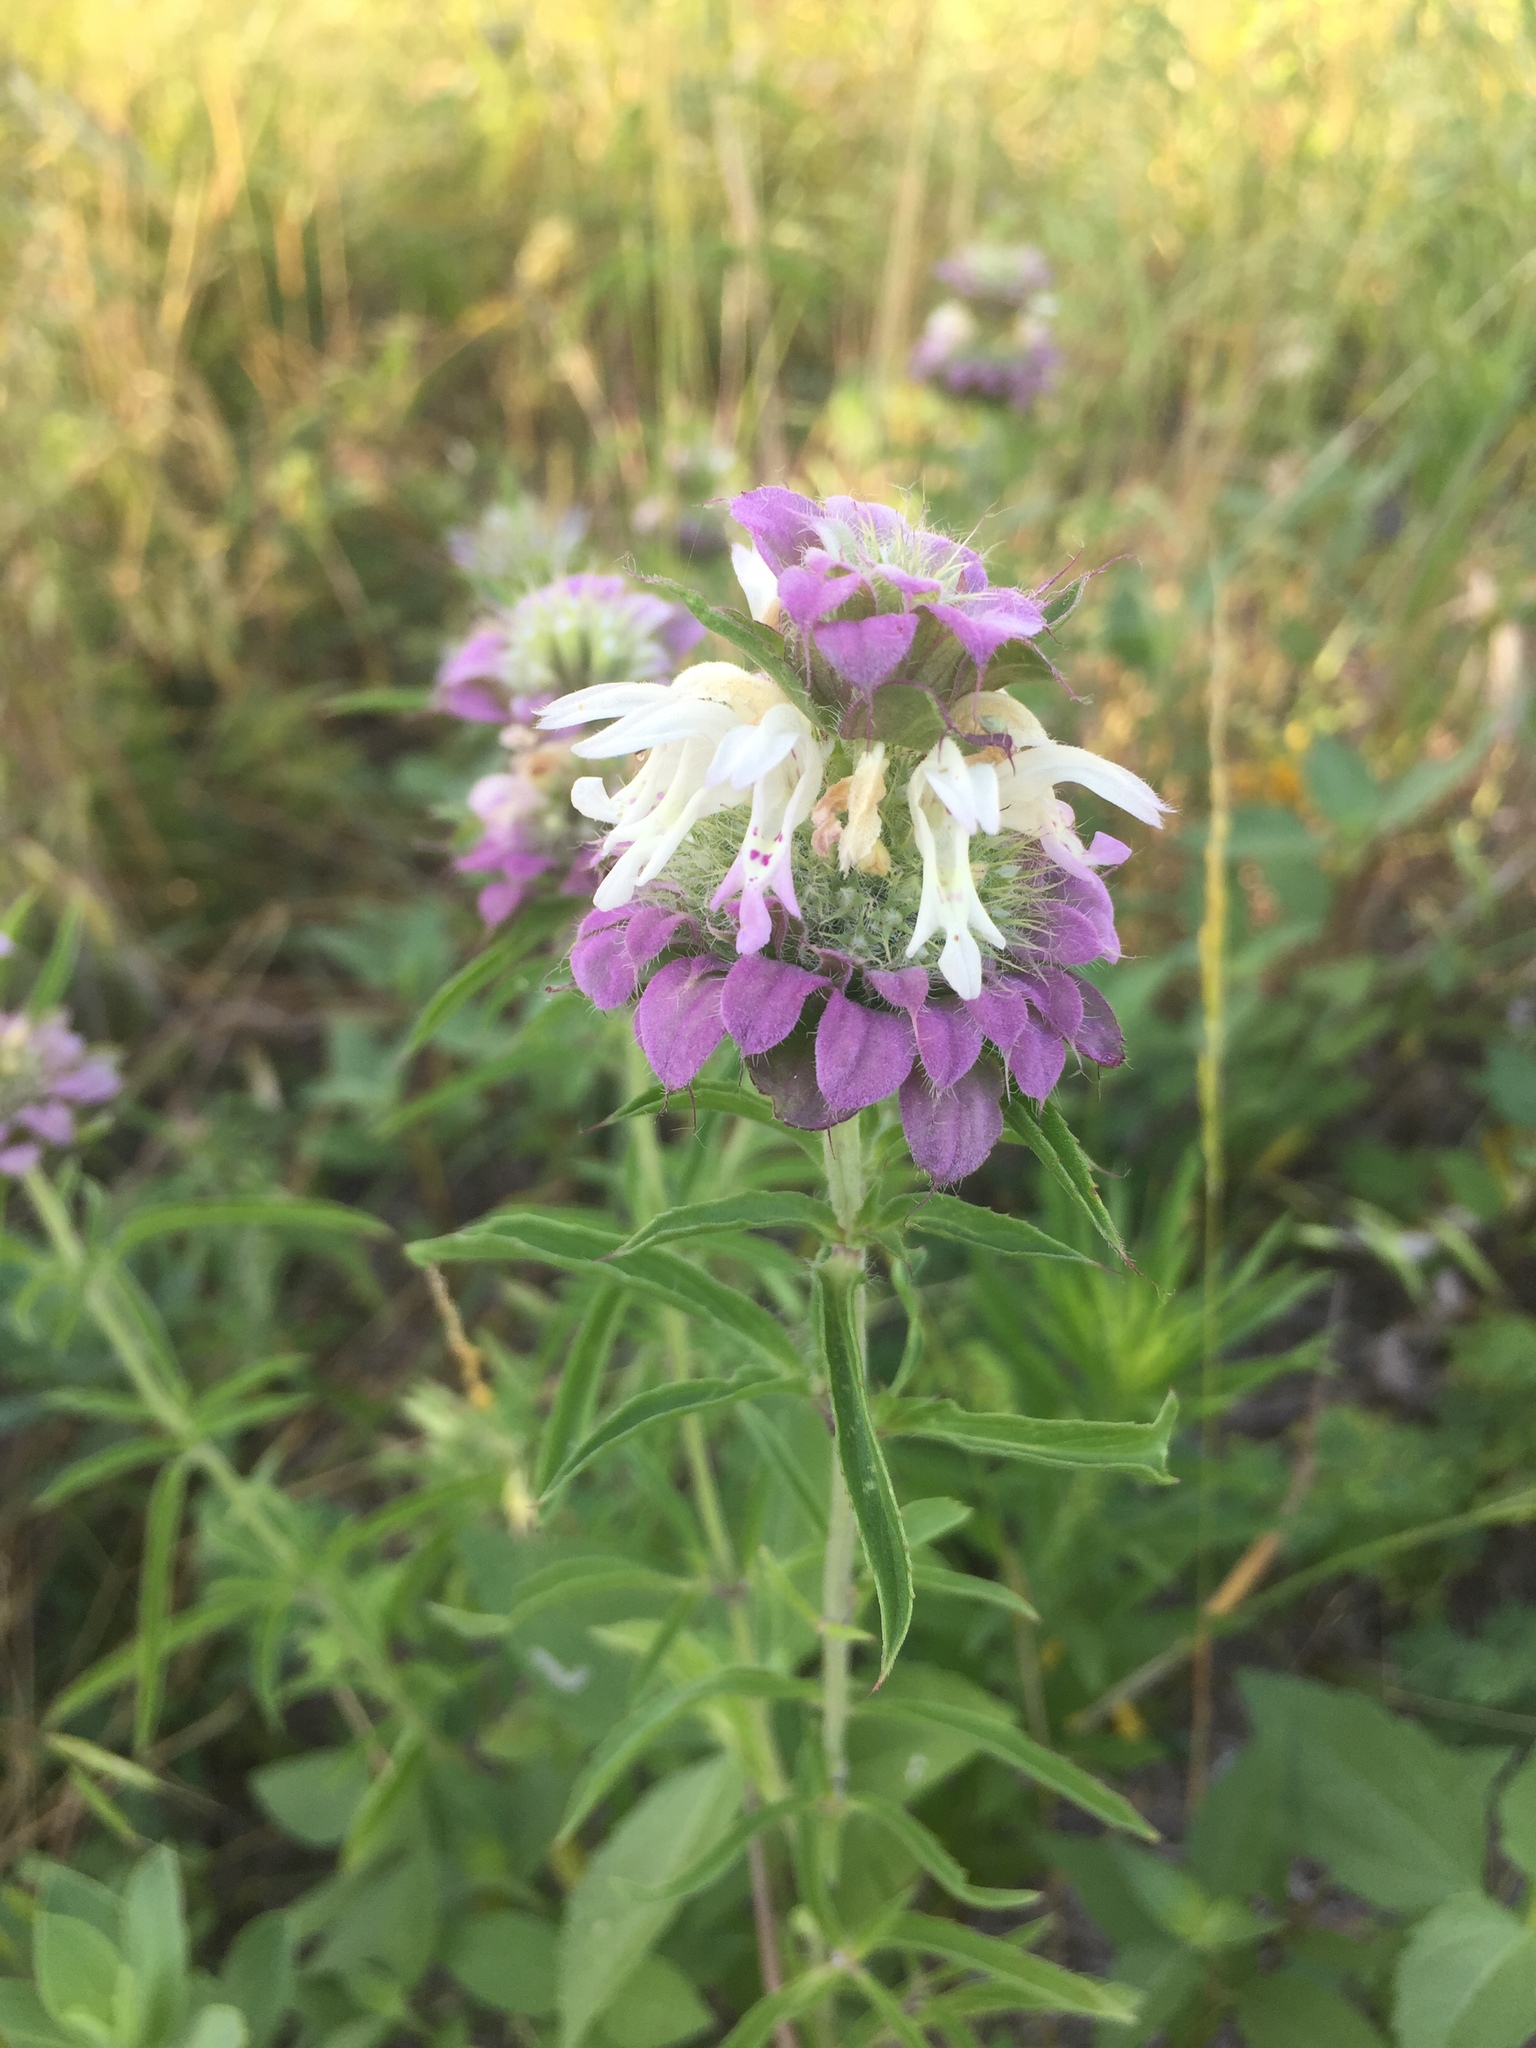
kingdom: Plantae
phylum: Tracheophyta
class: Magnoliopsida
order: Lamiales
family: Lamiaceae
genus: Monarda
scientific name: Monarda citriodora
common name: Lemon beebalm
